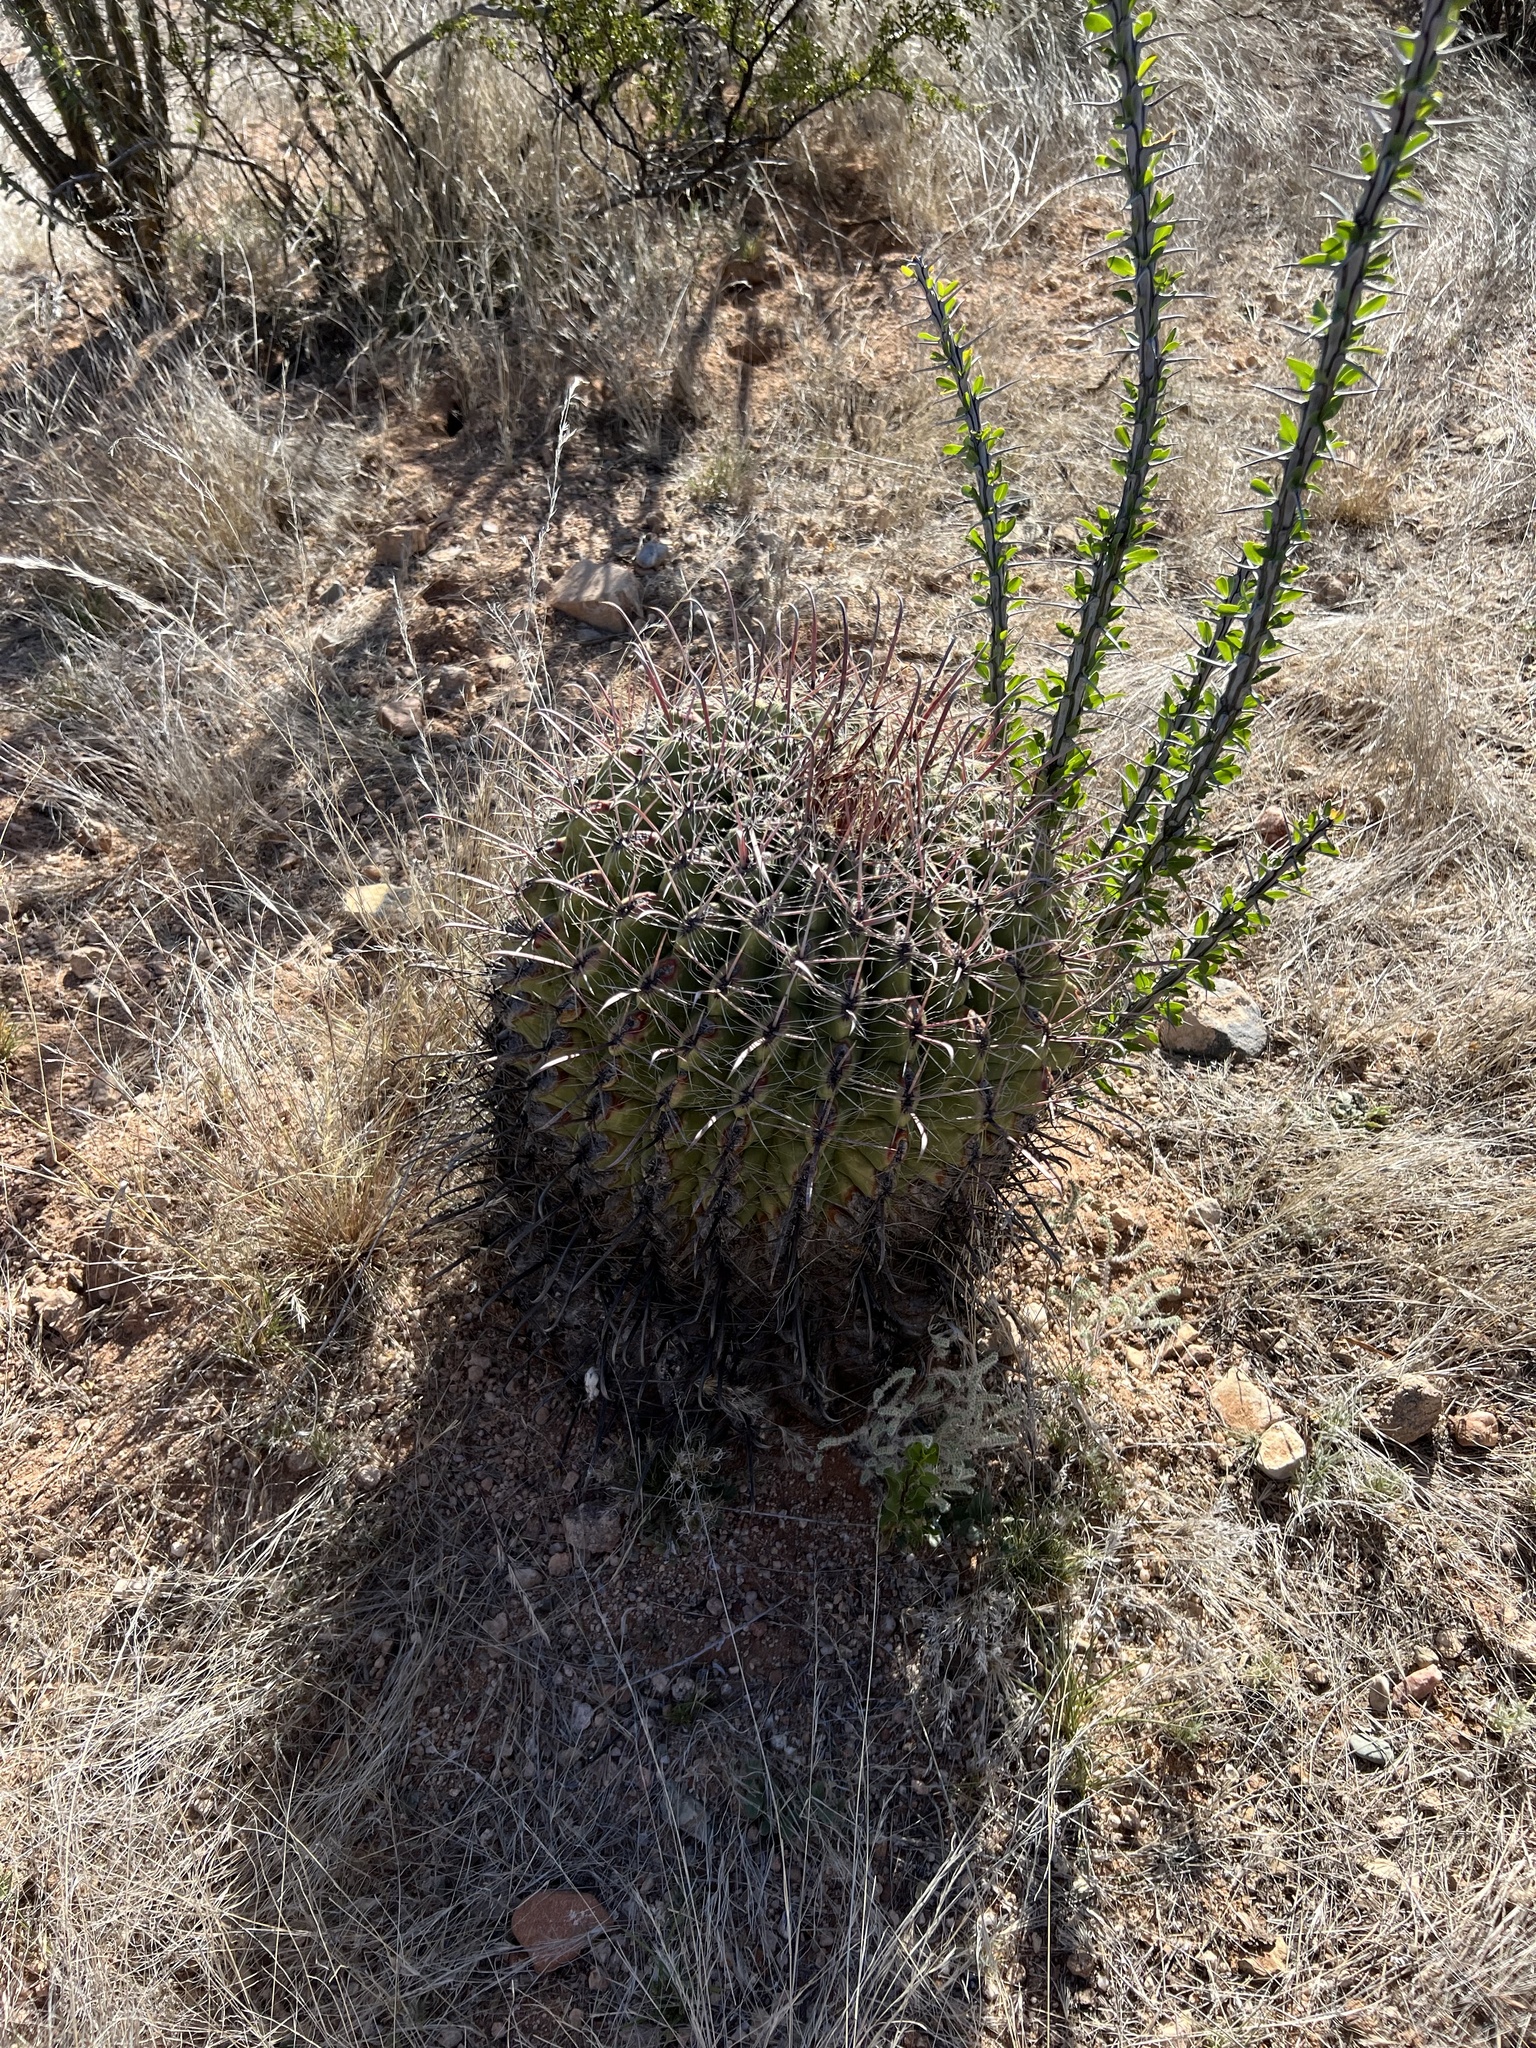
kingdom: Plantae
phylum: Tracheophyta
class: Magnoliopsida
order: Caryophyllales
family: Cactaceae
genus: Ferocactus
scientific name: Ferocactus wislizeni
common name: Candy barrel cactus
